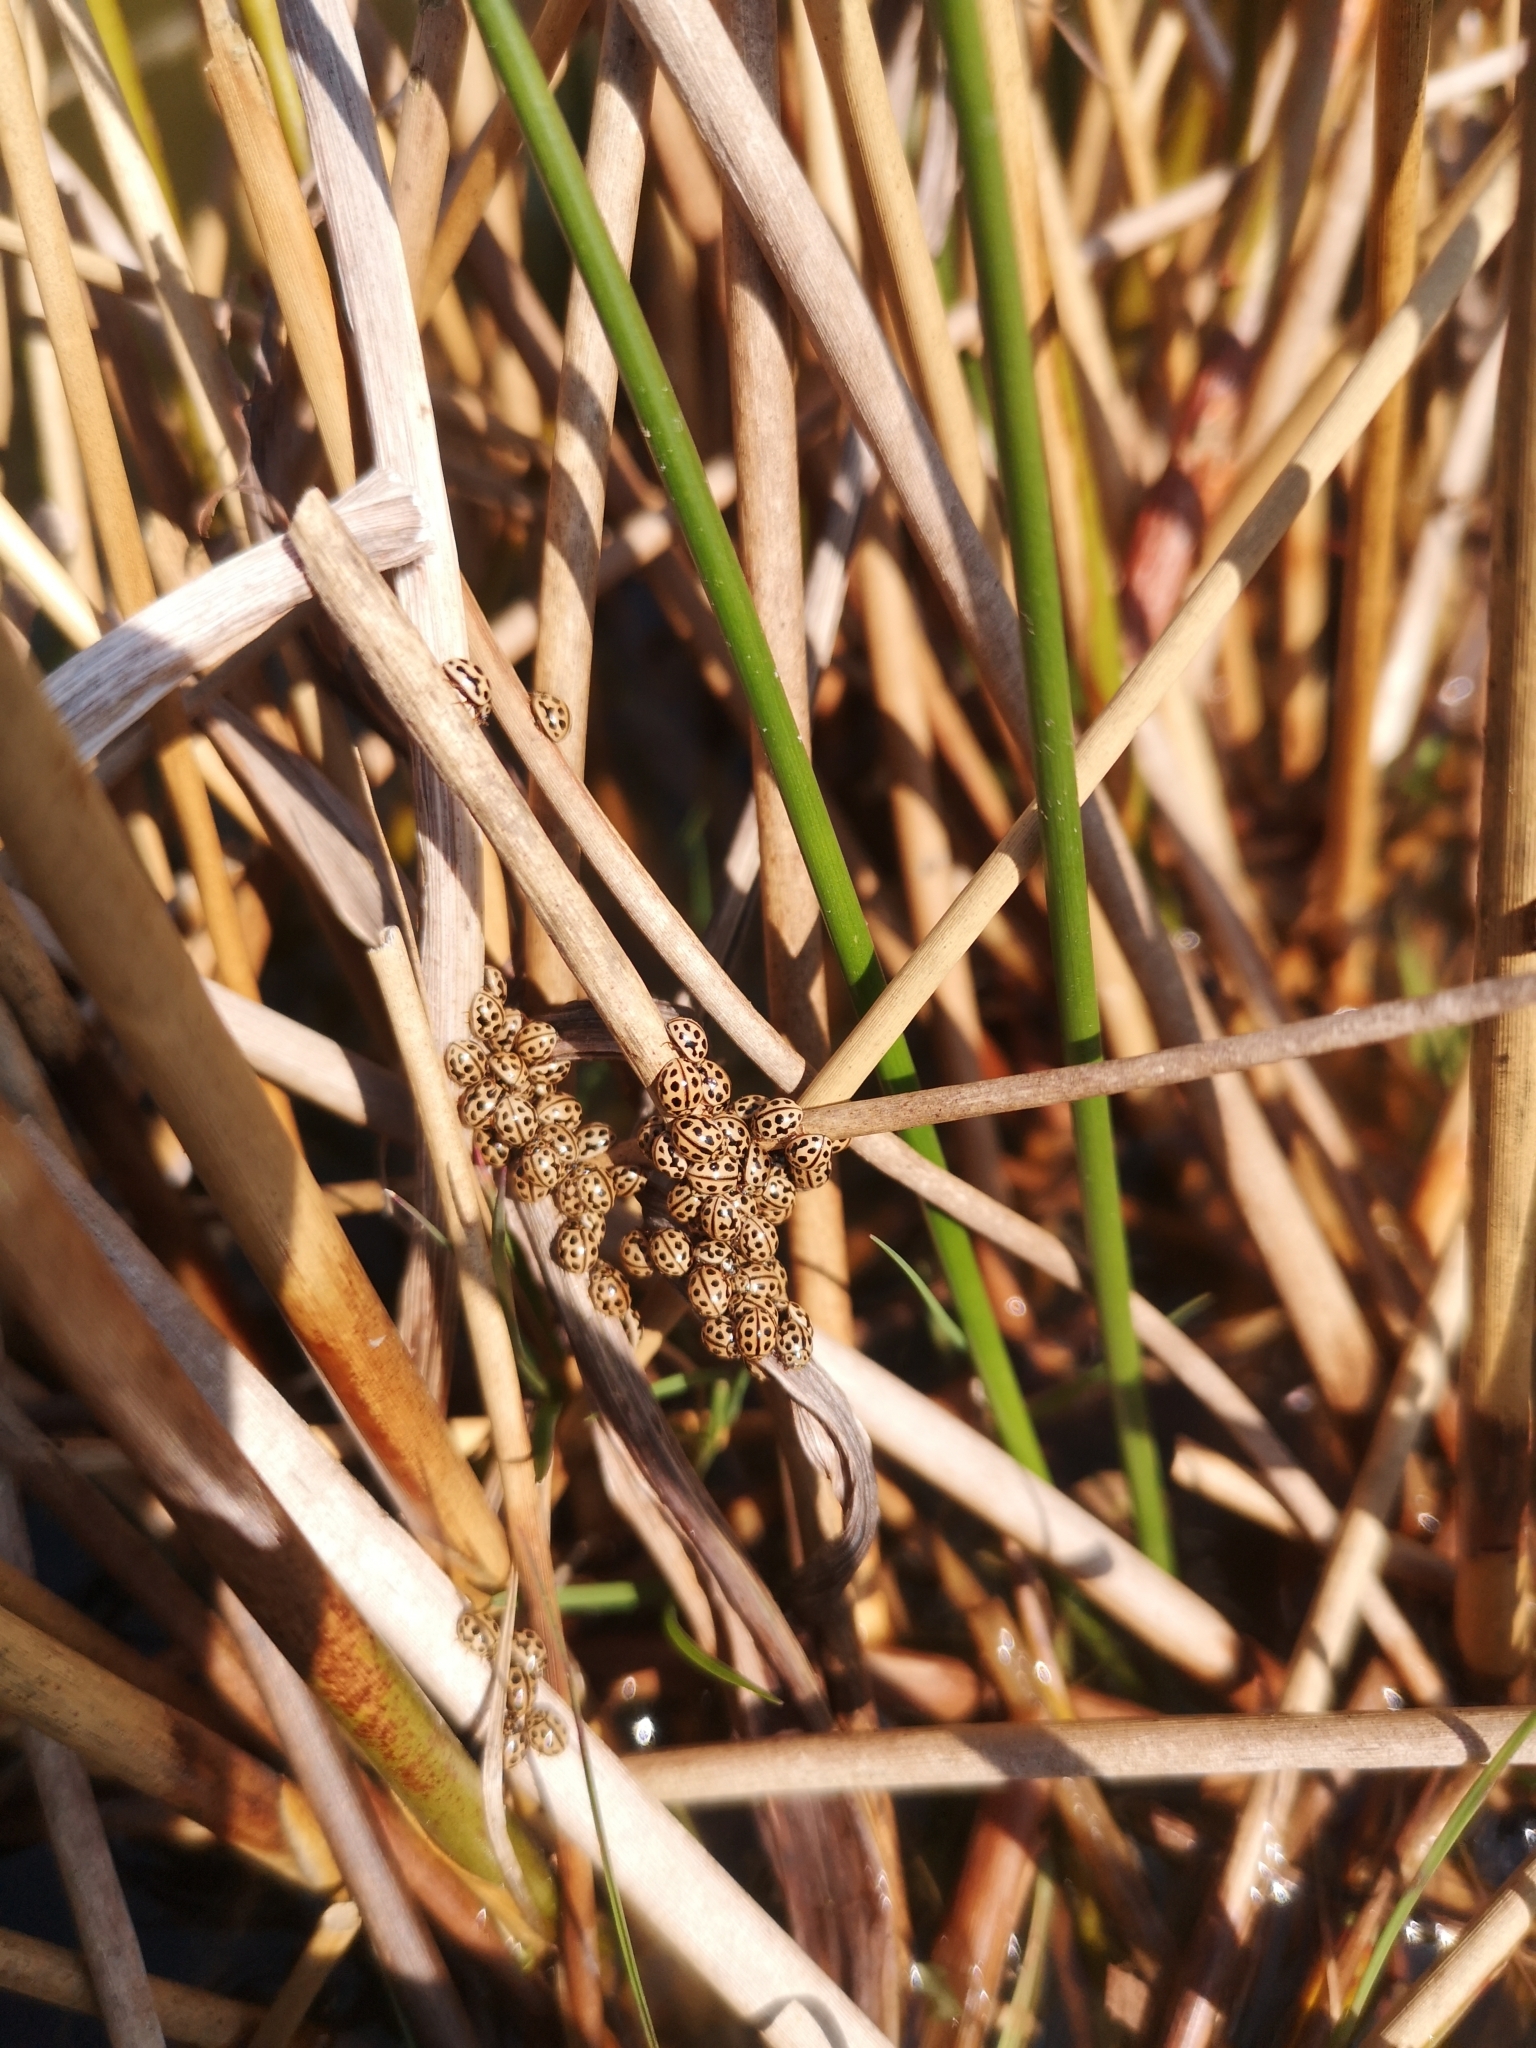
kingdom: Animalia
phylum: Arthropoda
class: Insecta
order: Coleoptera
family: Coccinellidae
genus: Tytthaspis
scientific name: Tytthaspis sedecimpunctata
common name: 16-spot ladybird
